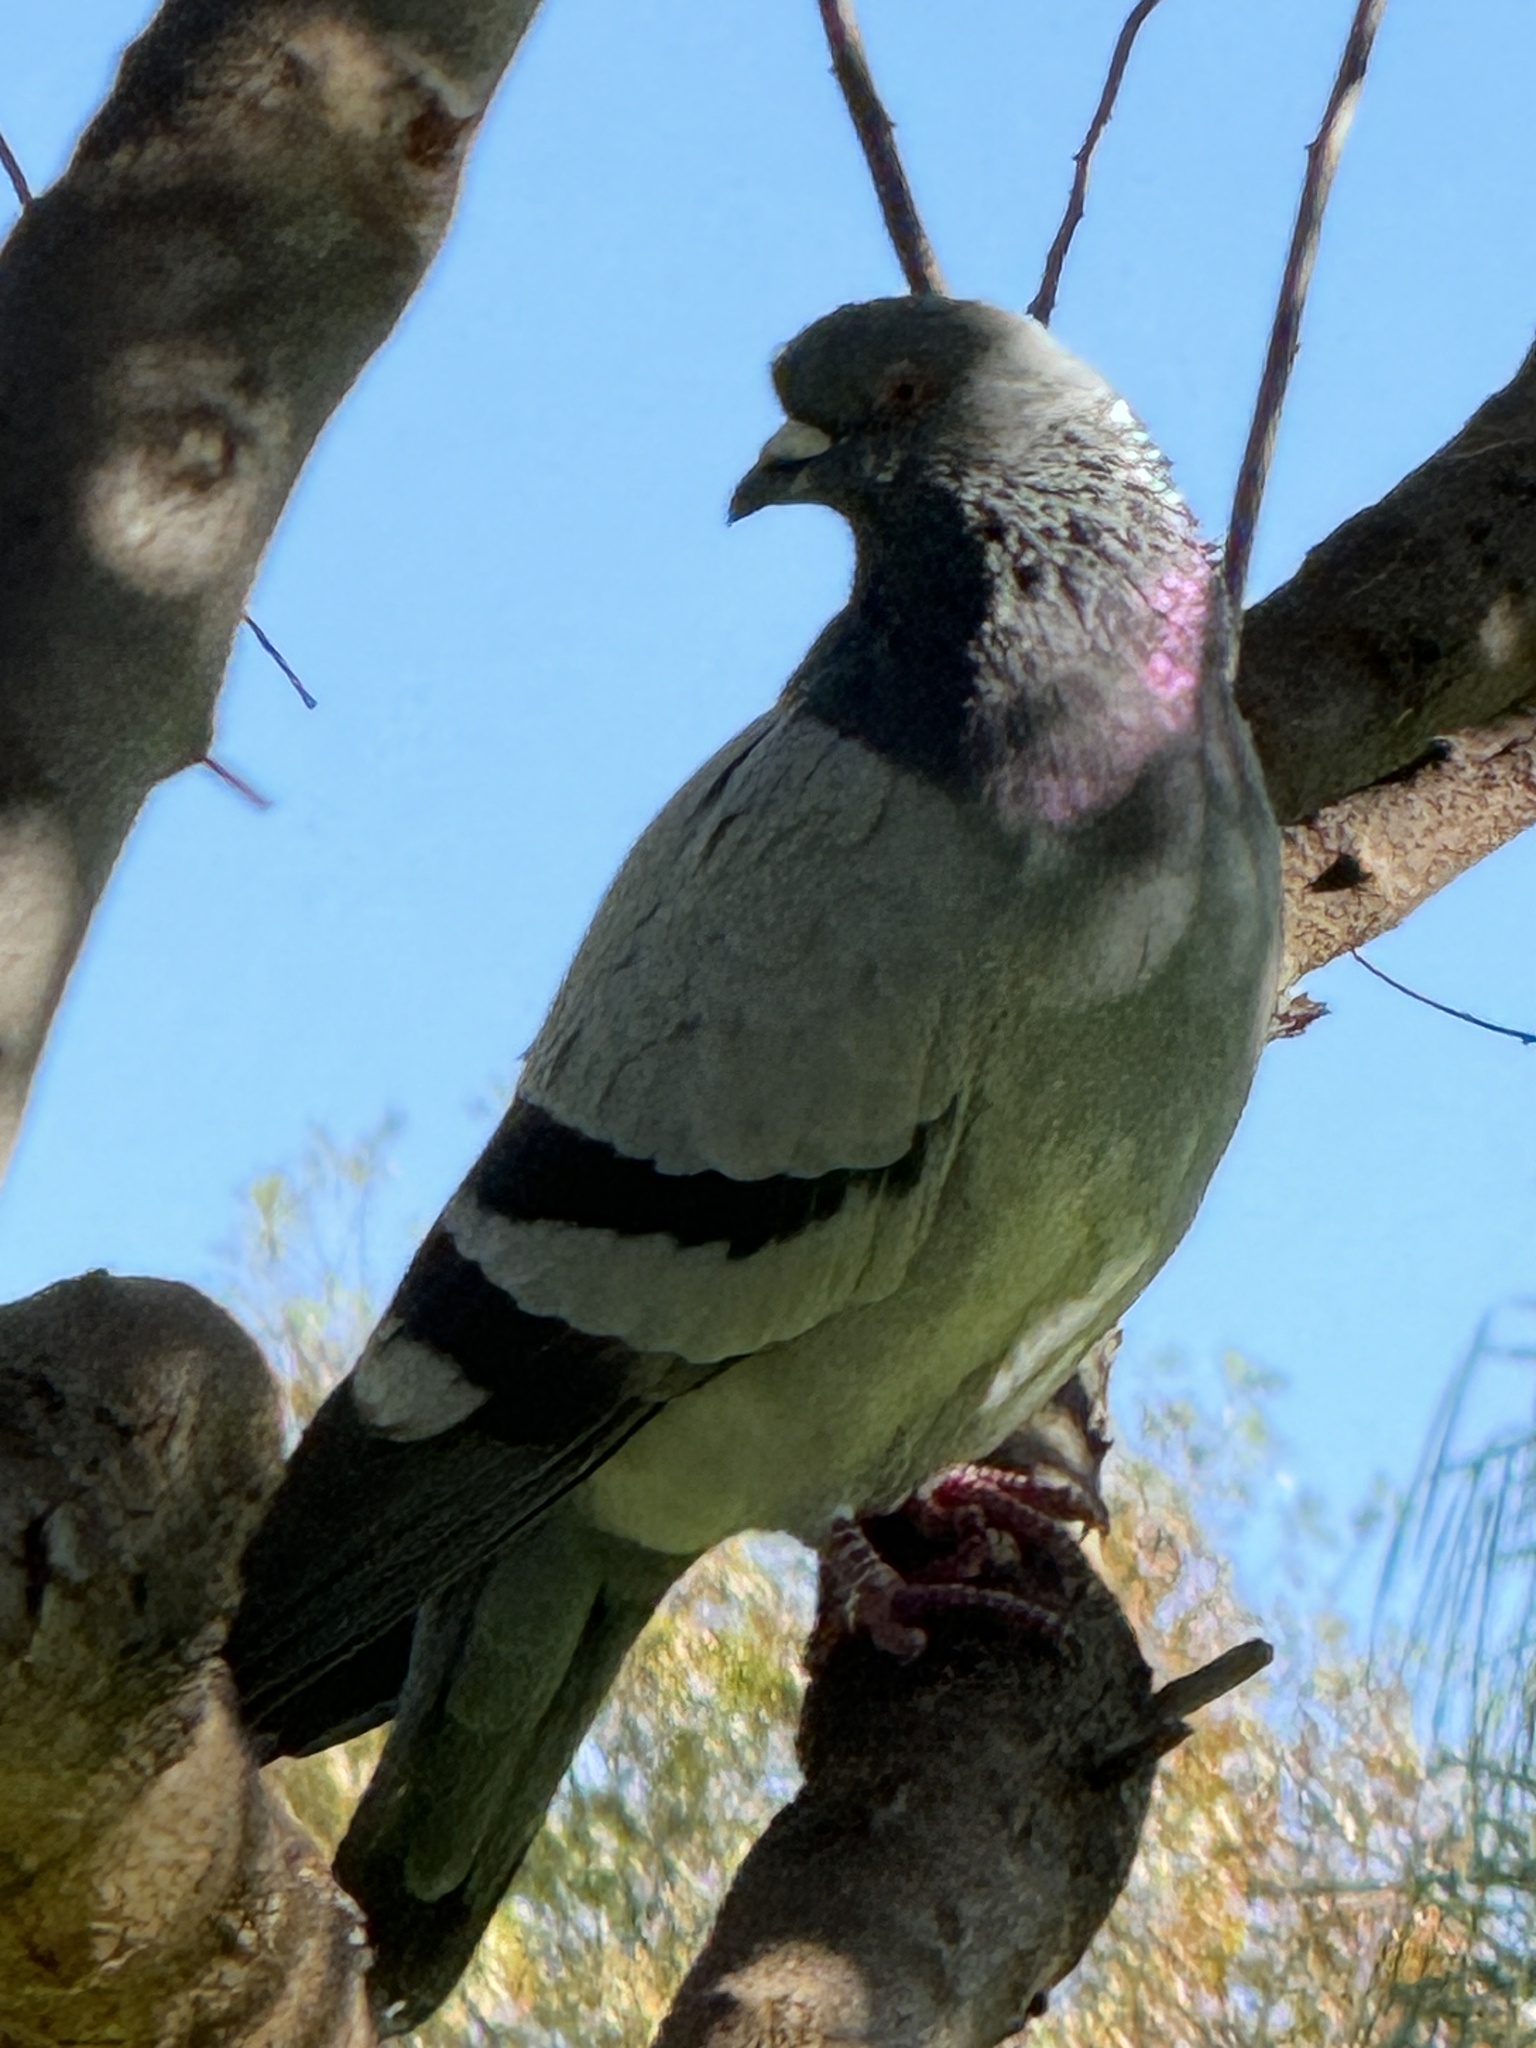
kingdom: Animalia
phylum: Chordata
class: Aves
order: Columbiformes
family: Columbidae
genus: Columba
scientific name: Columba livia
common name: Rock pigeon
